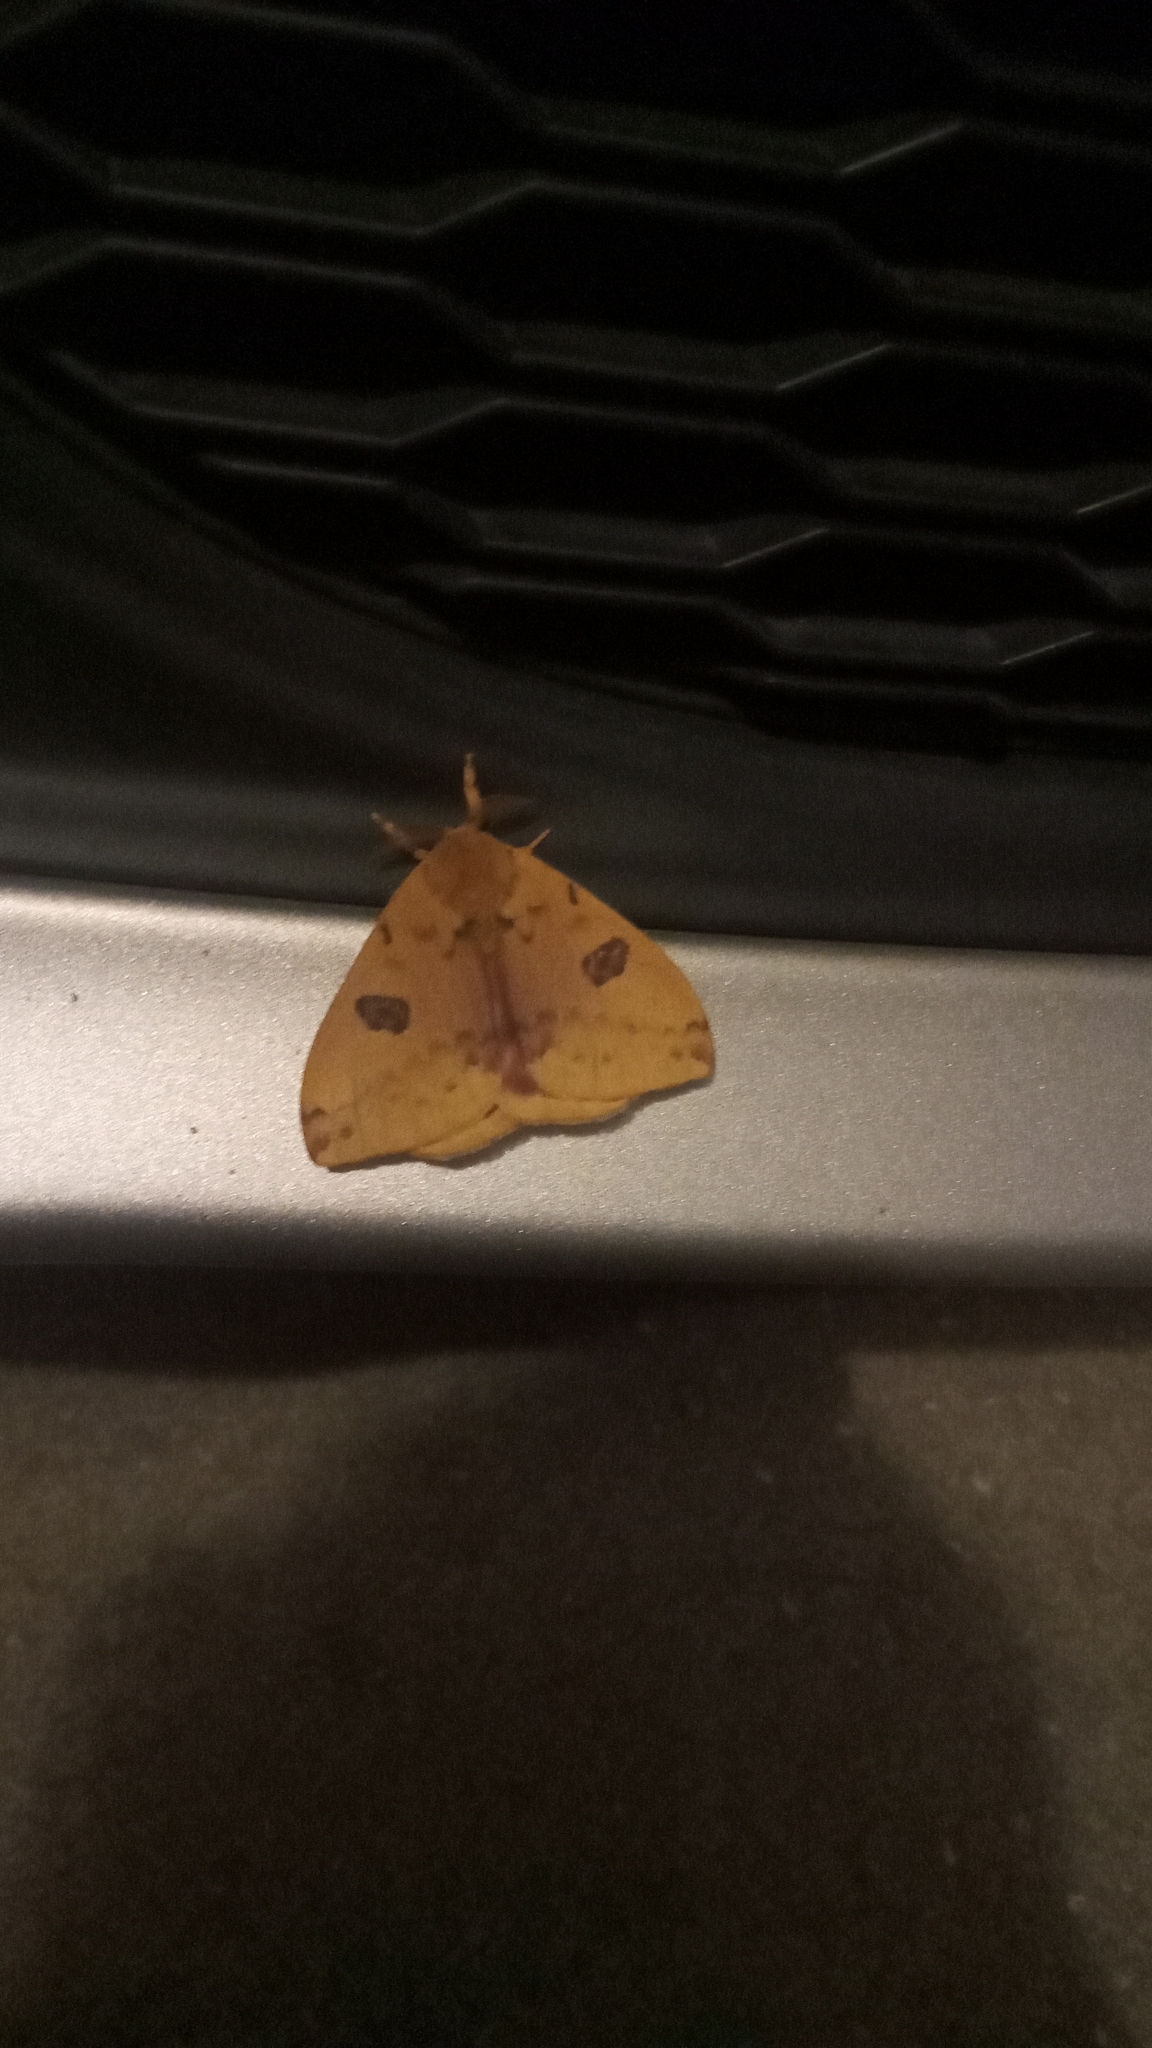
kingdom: Animalia
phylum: Arthropoda
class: Insecta
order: Lepidoptera
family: Saturniidae
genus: Automeris
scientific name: Automeris io
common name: Io moth
